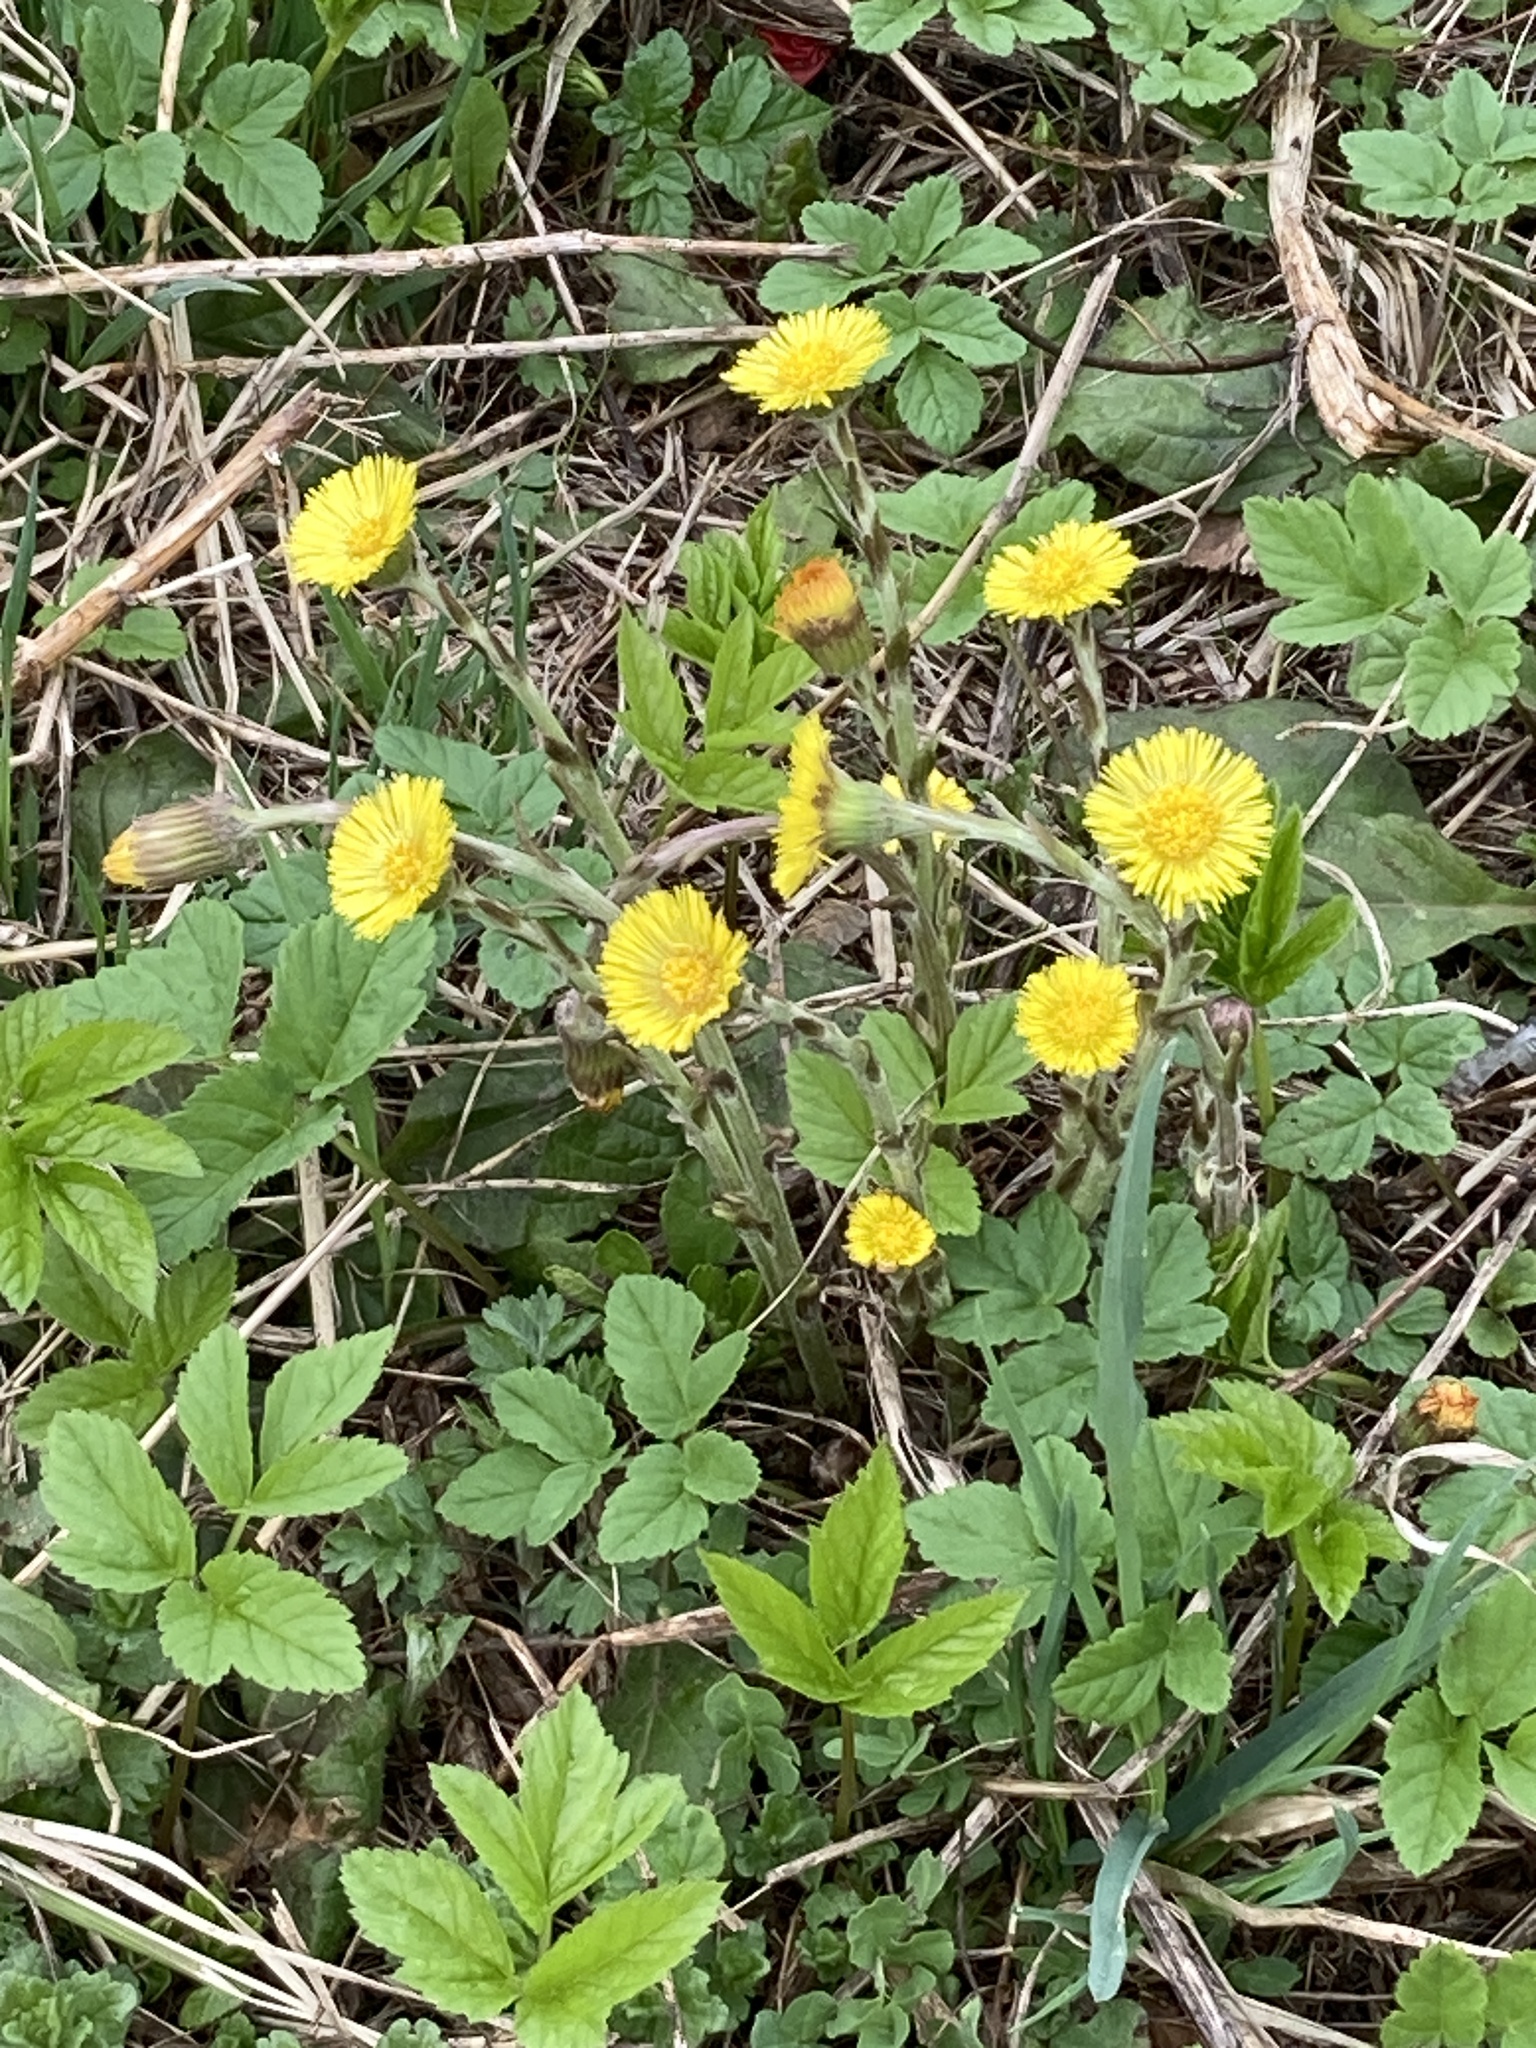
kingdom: Plantae
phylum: Tracheophyta
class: Magnoliopsida
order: Asterales
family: Asteraceae
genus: Tussilago
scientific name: Tussilago farfara
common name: Coltsfoot
